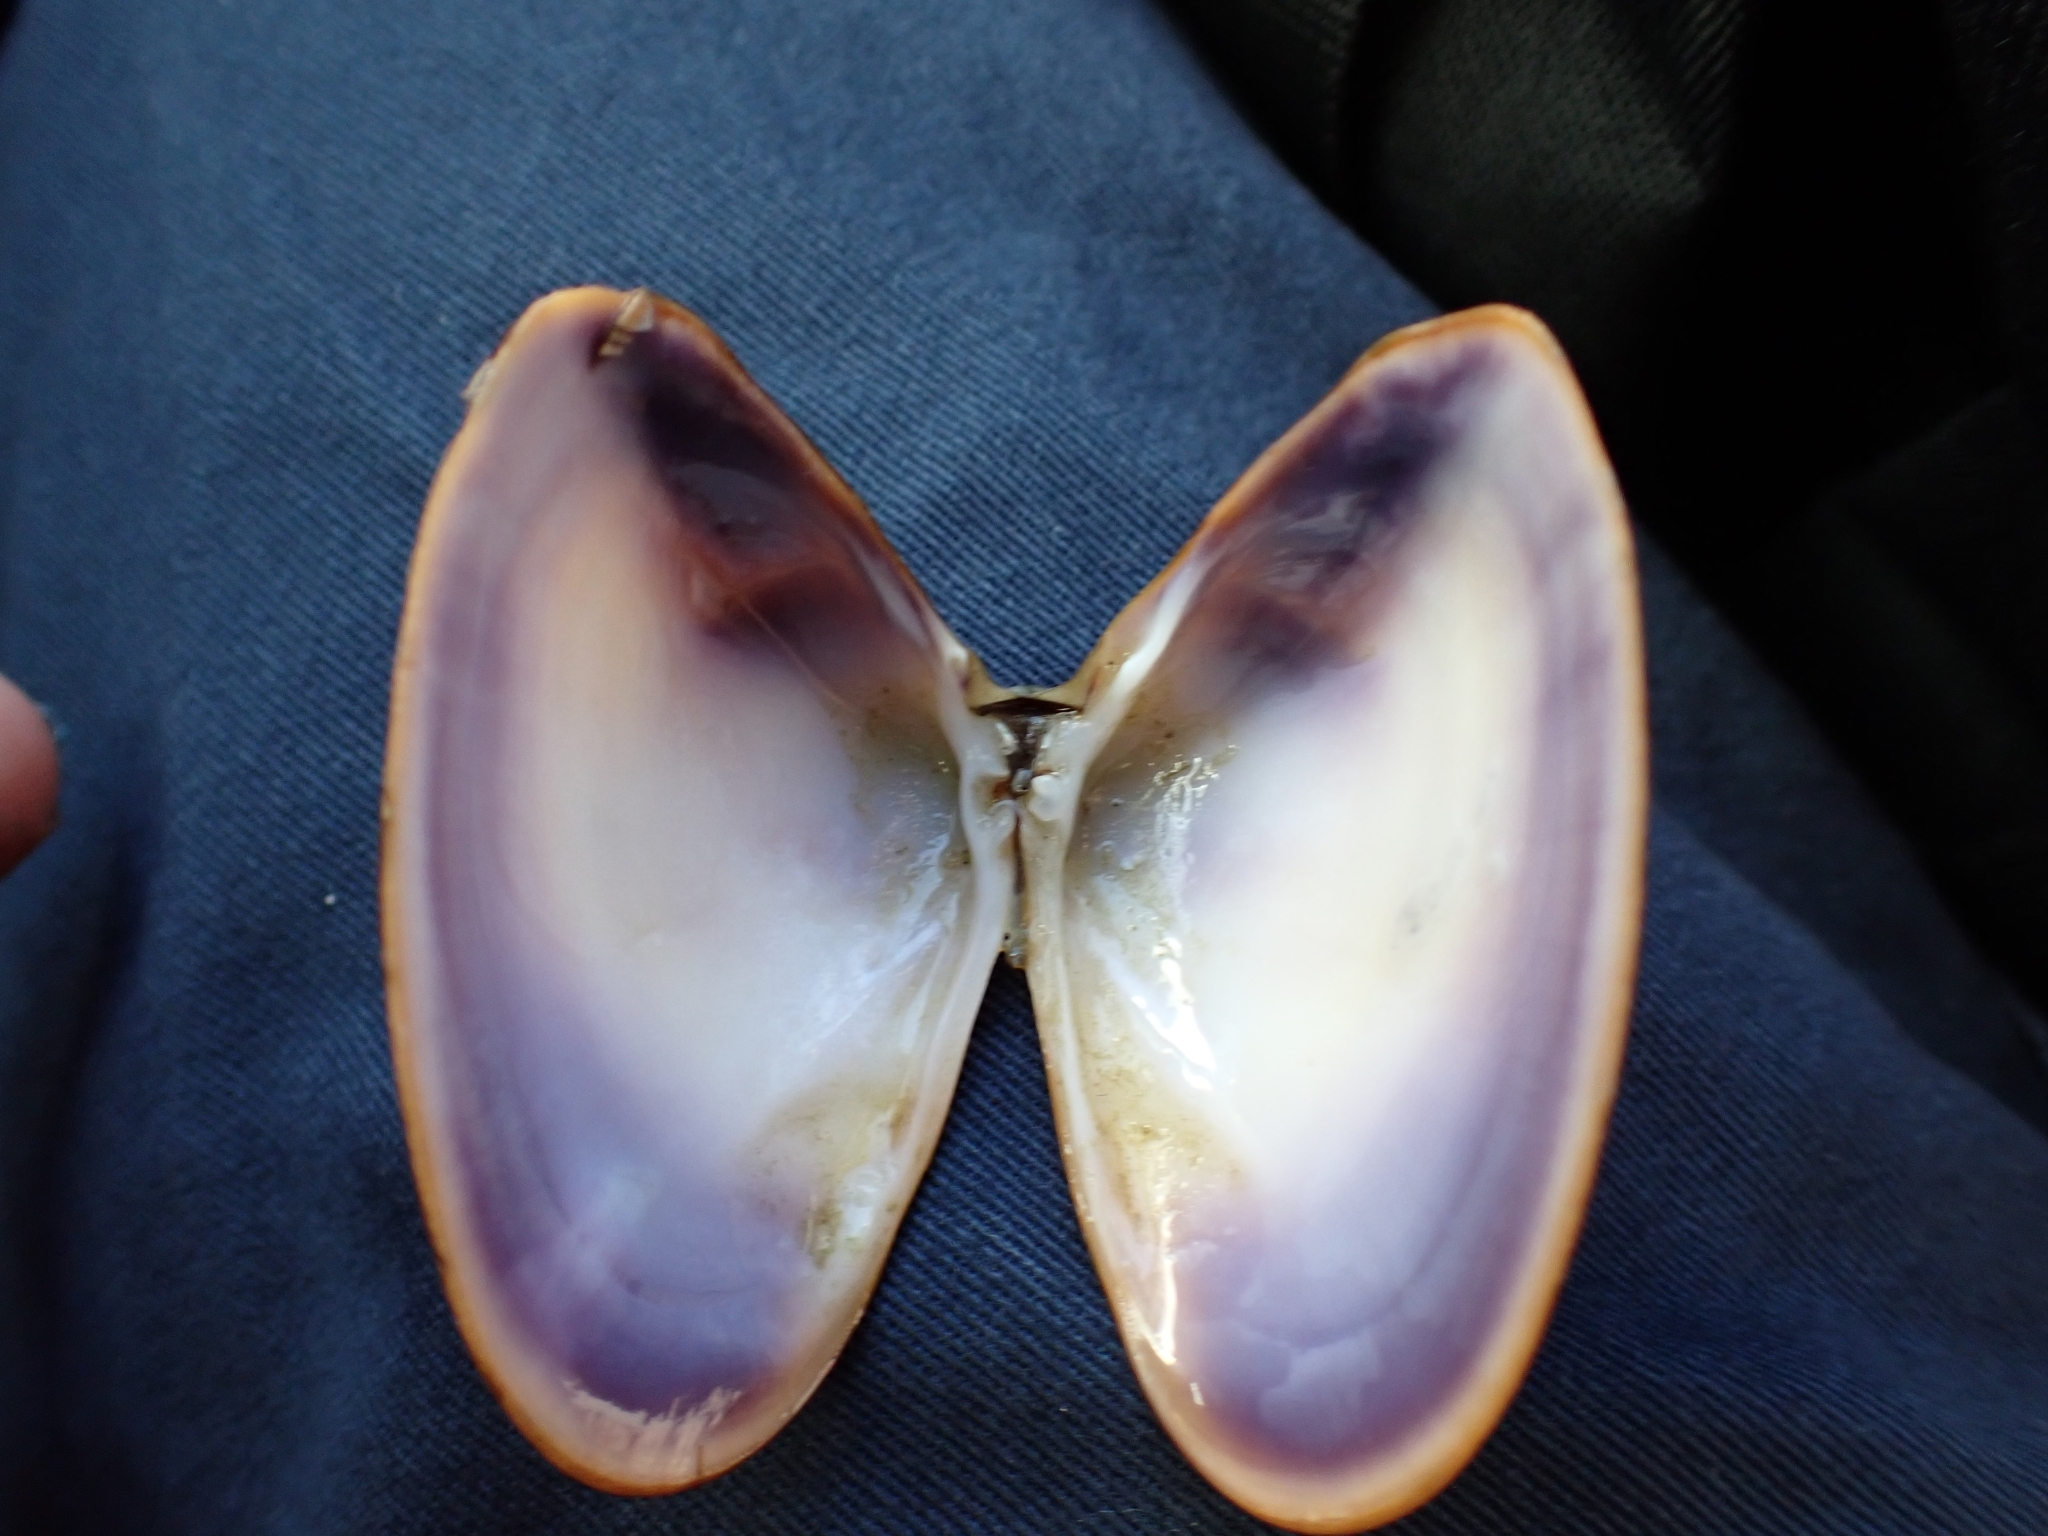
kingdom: Animalia
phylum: Mollusca
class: Bivalvia
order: Cardiida
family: Donacidae
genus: Latona
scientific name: Latona deltoides
